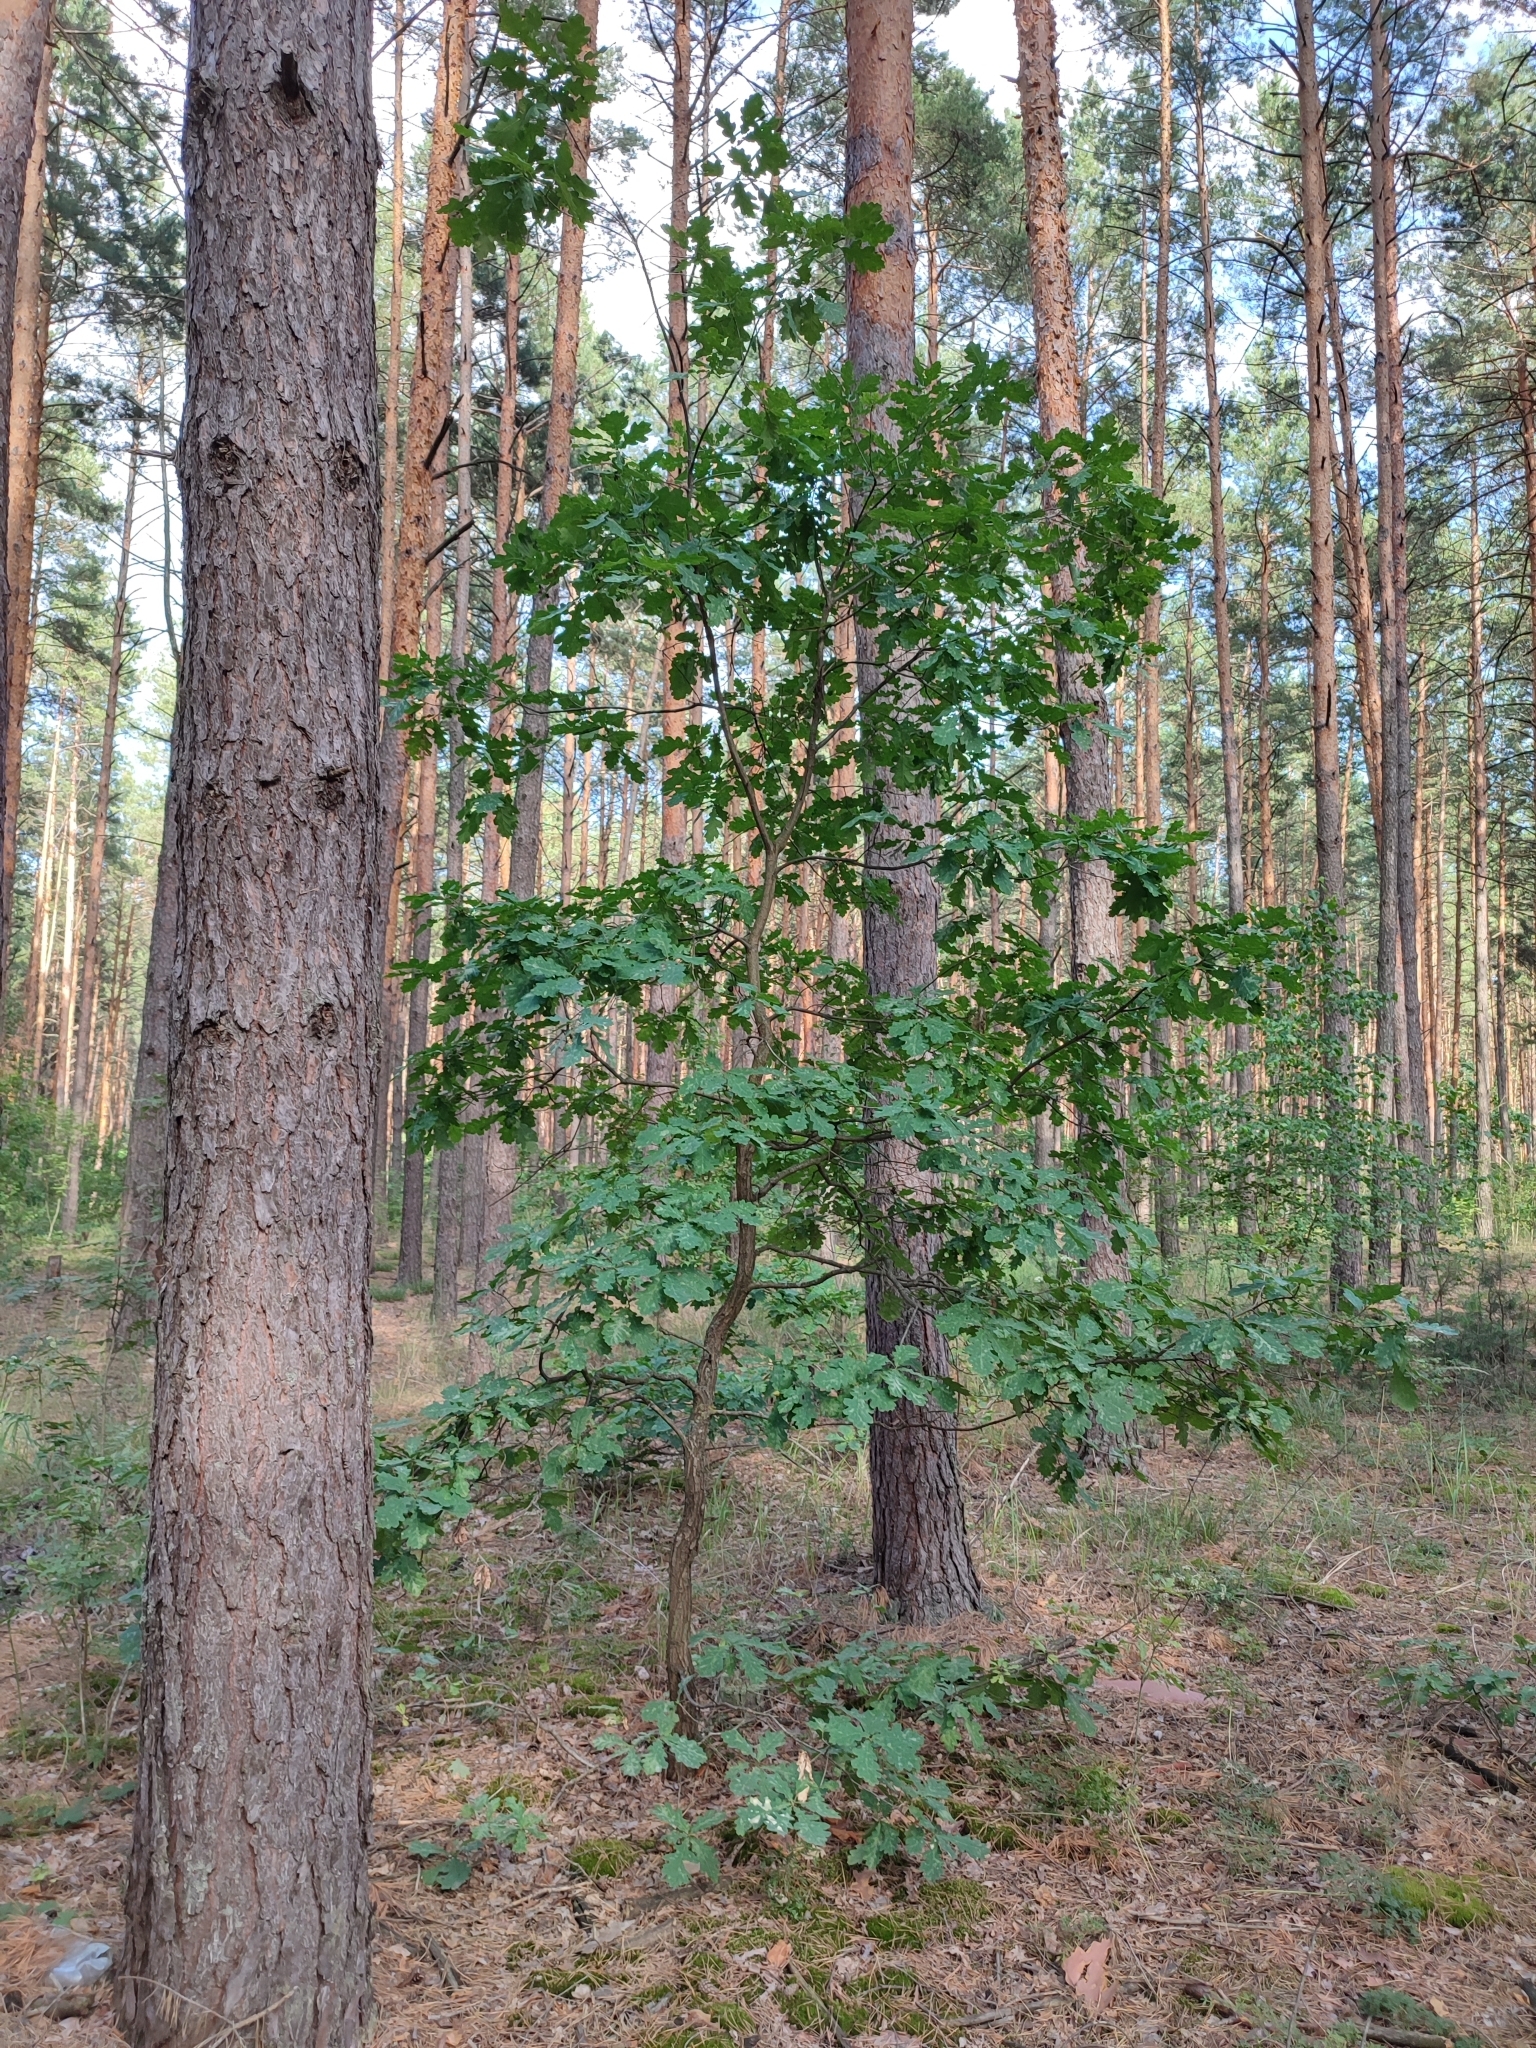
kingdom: Plantae
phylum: Tracheophyta
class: Magnoliopsida
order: Fagales
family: Fagaceae
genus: Quercus
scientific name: Quercus robur
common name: Pedunculate oak
